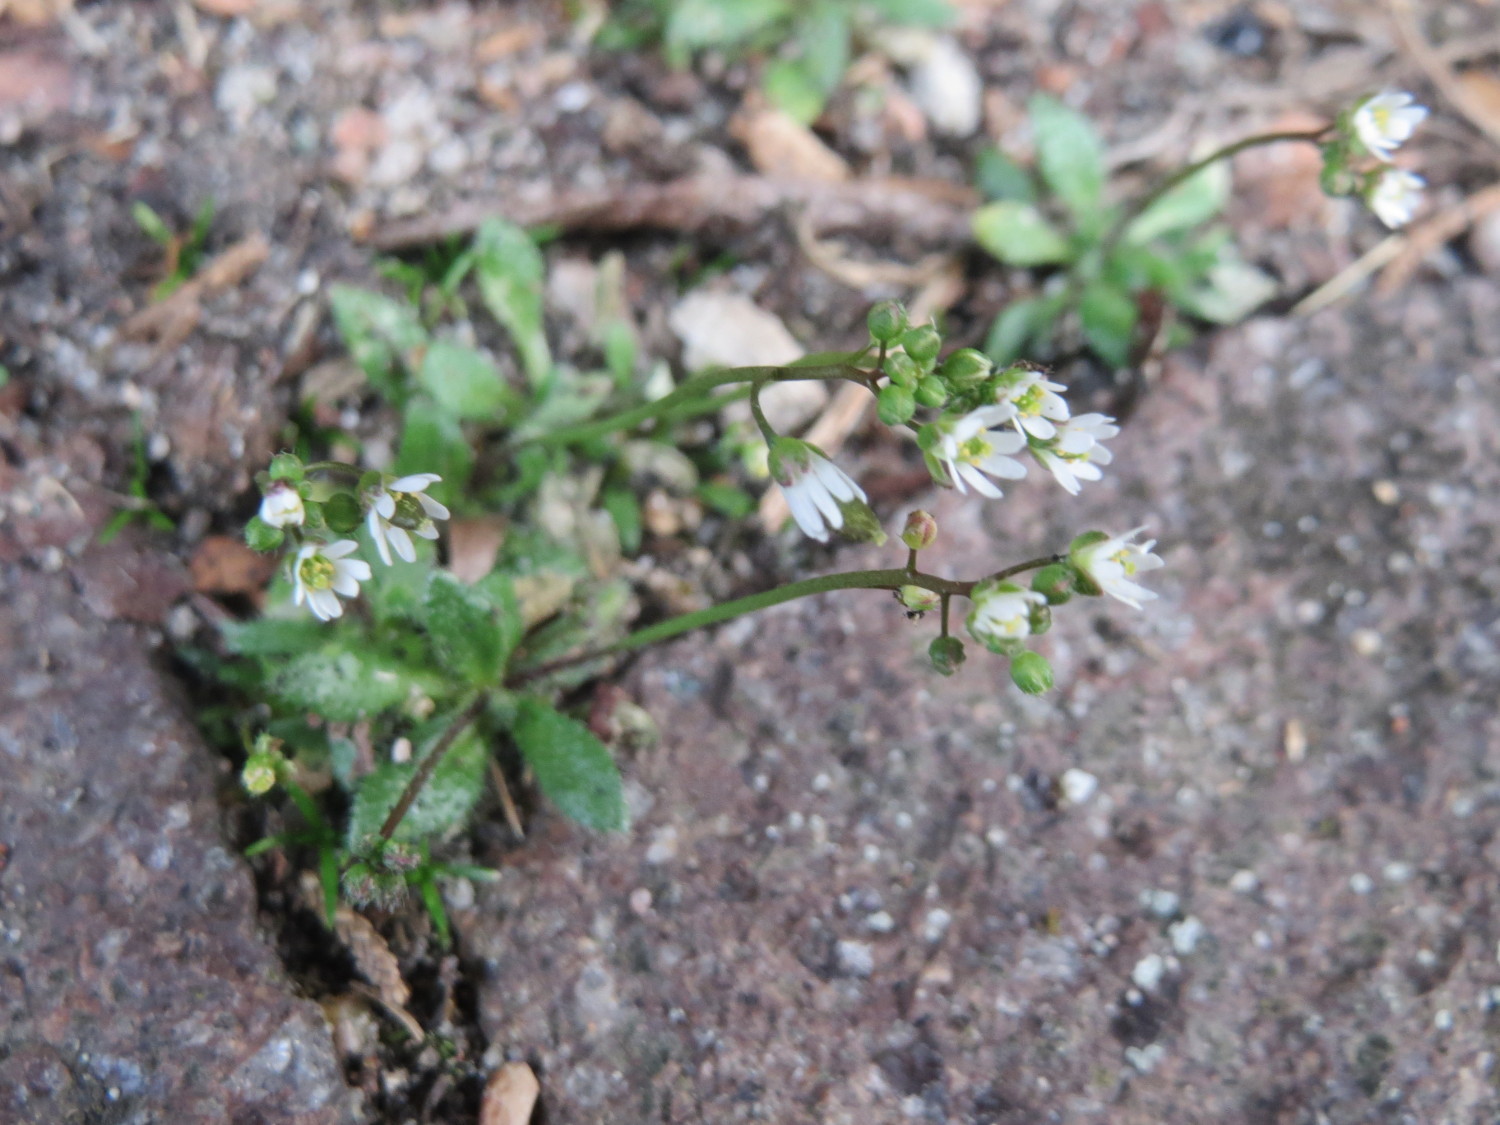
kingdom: Plantae
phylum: Tracheophyta
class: Magnoliopsida
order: Brassicales
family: Brassicaceae
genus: Draba
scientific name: Draba verna
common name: Spring draba
